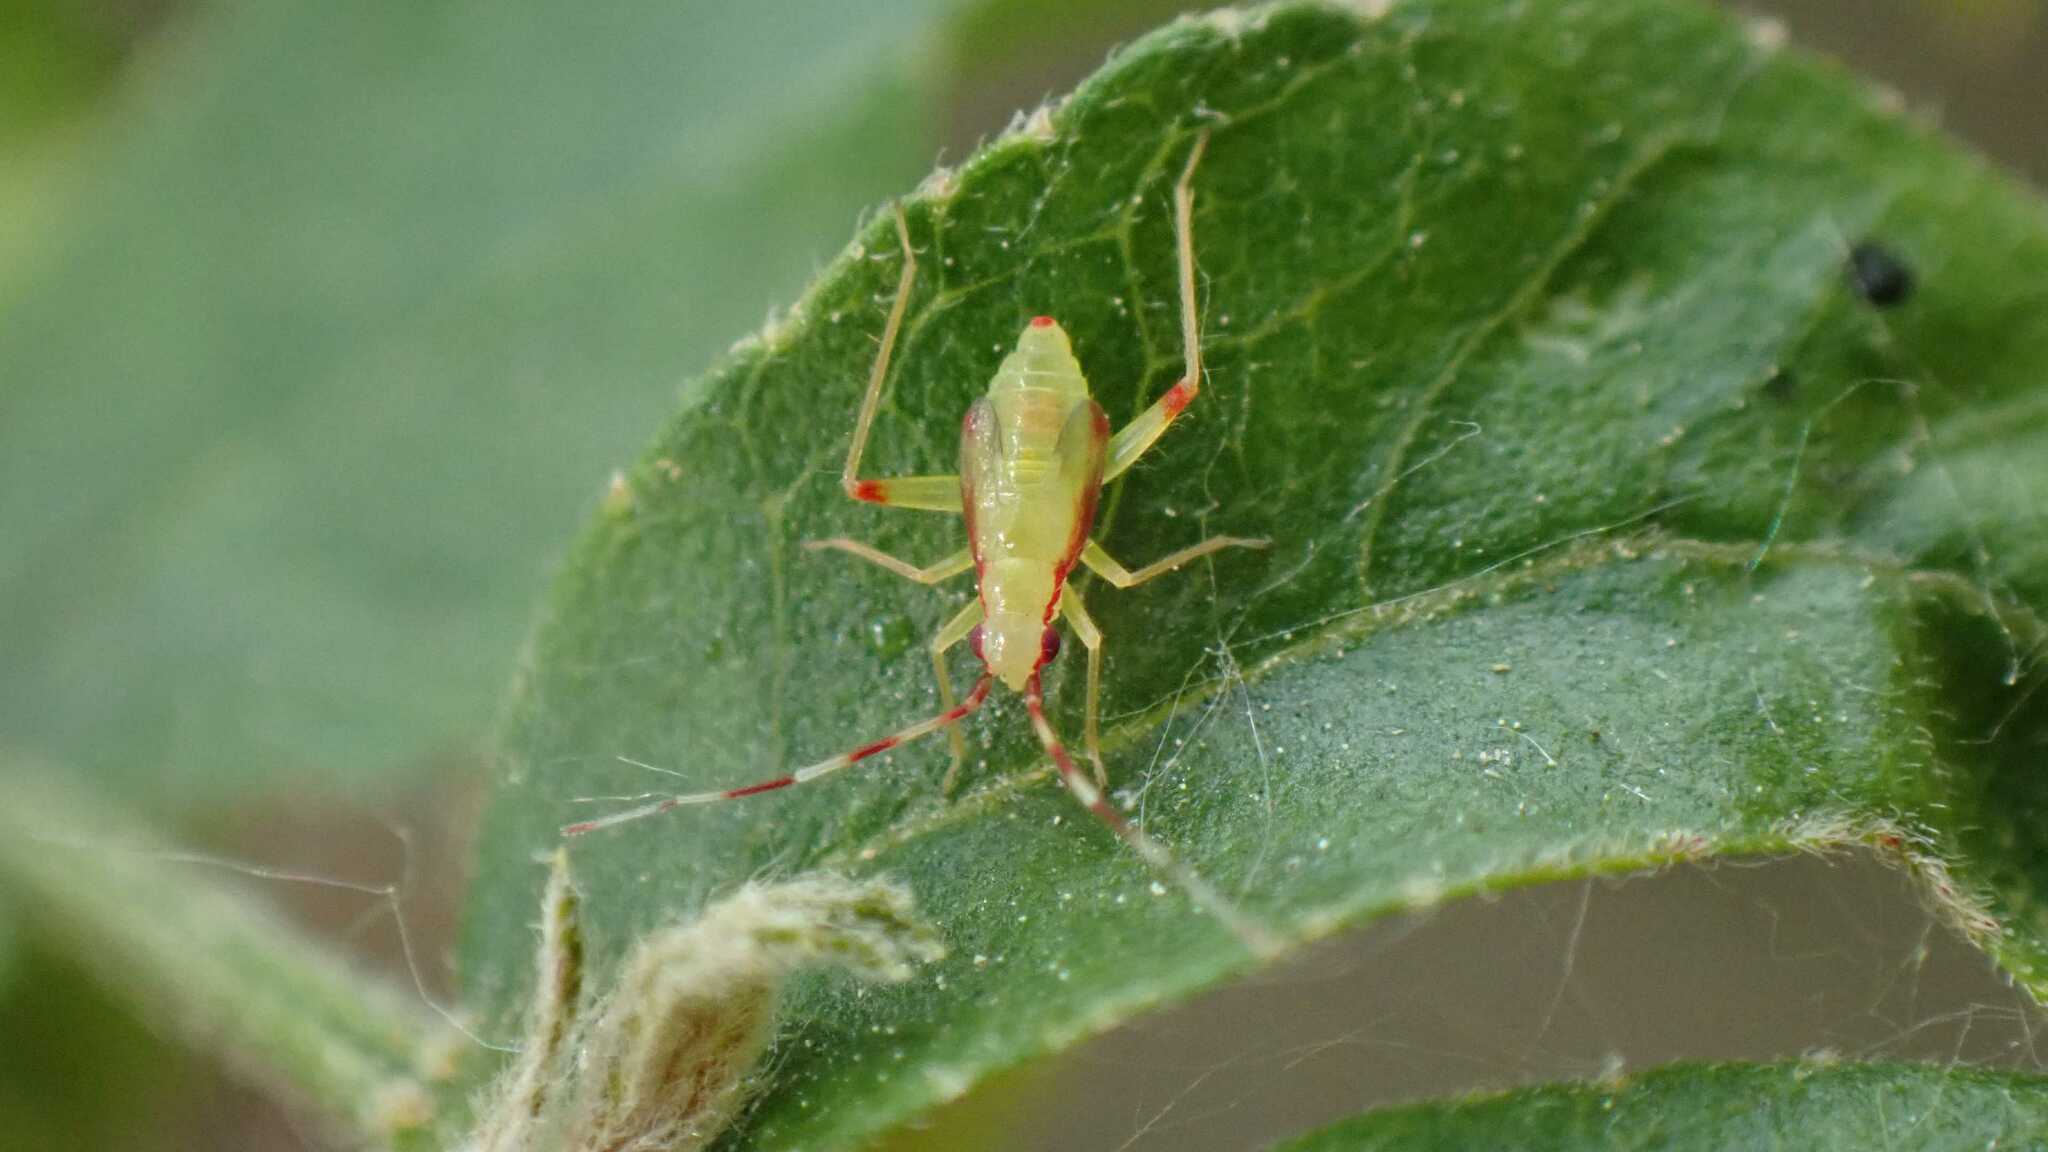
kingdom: Animalia
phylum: Arthropoda
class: Insecta
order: Hemiptera
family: Miridae
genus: Campyloneura
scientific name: Campyloneura virgula
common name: Predatory bug
